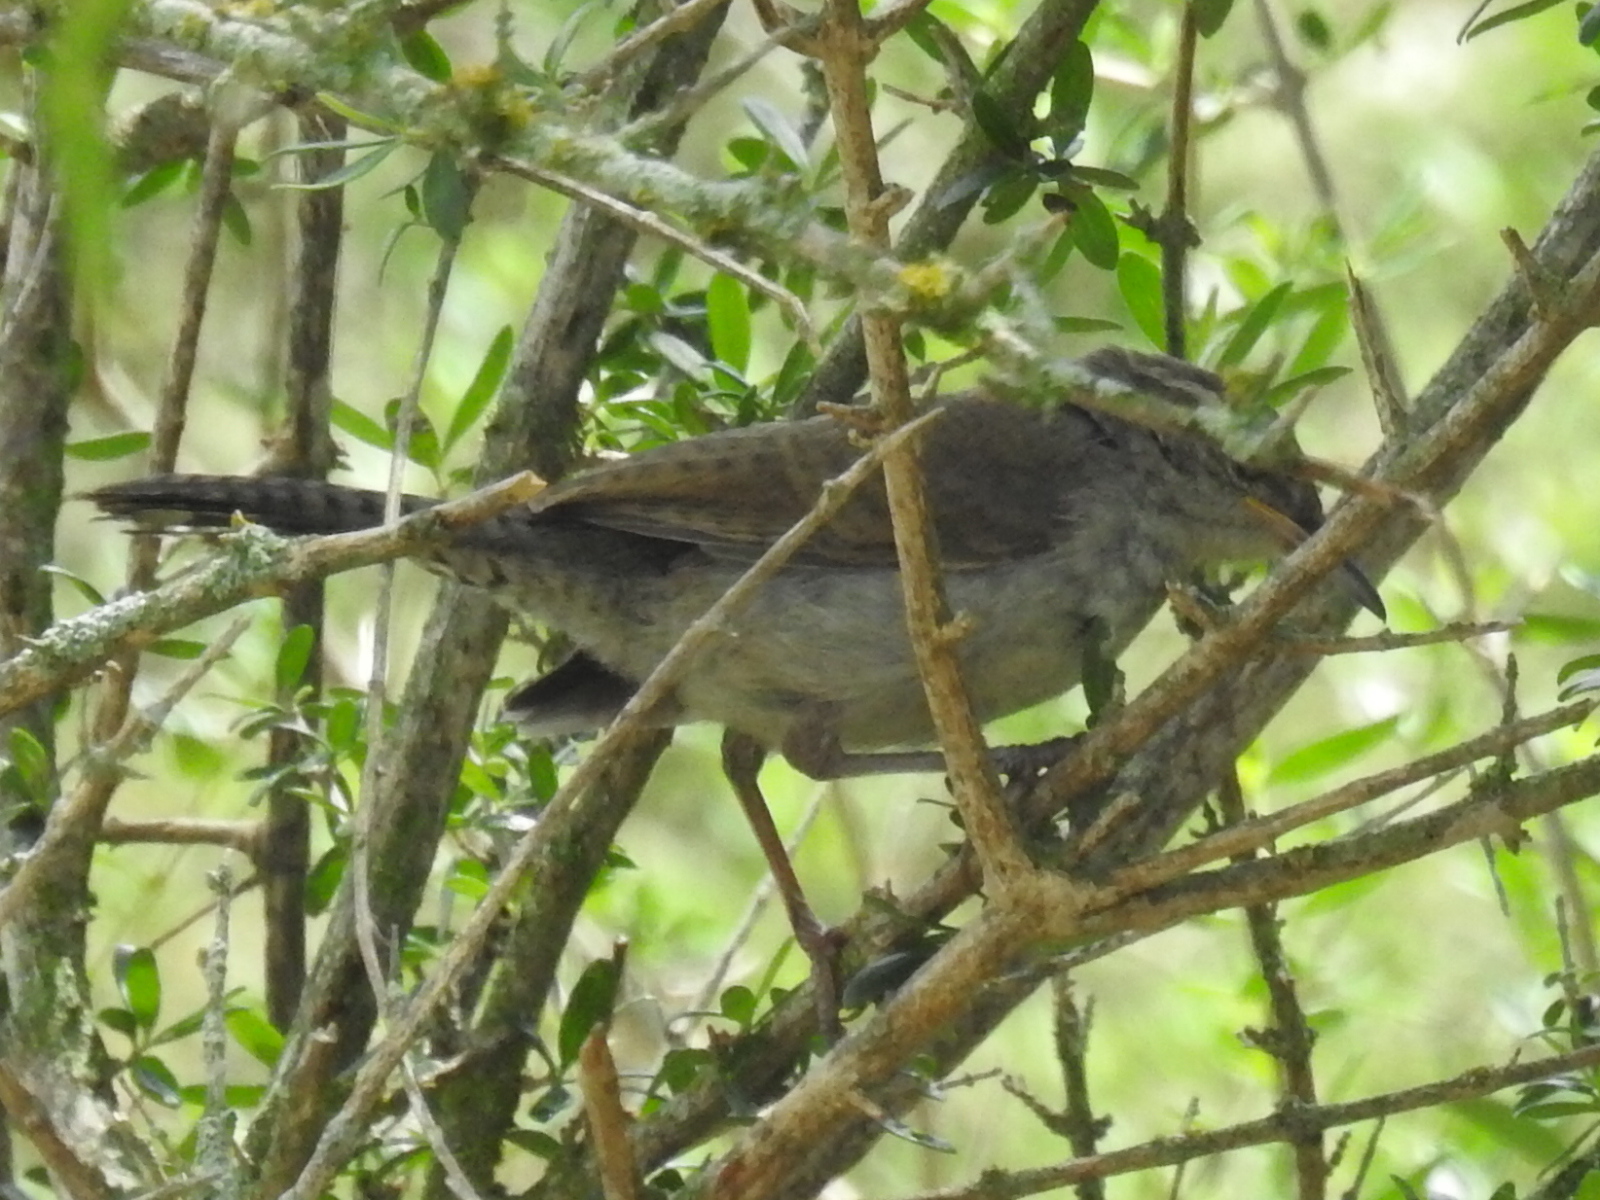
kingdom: Animalia
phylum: Chordata
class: Aves
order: Passeriformes
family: Troglodytidae
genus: Thryomanes
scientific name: Thryomanes bewickii
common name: Bewick's wren
